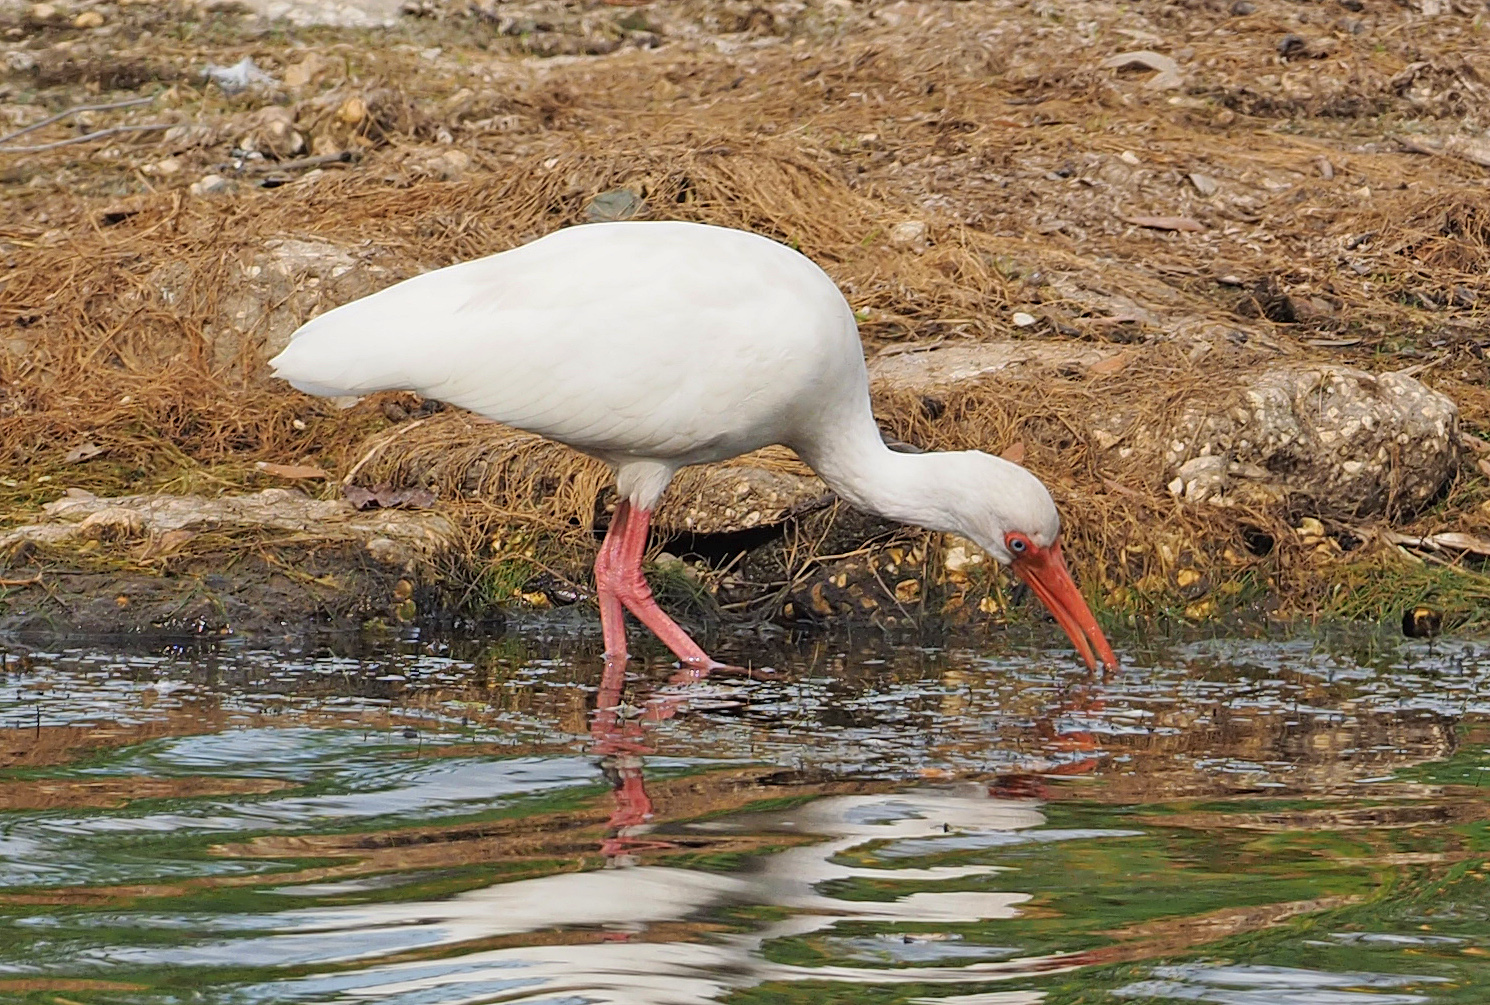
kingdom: Animalia
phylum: Chordata
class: Aves
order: Pelecaniformes
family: Threskiornithidae
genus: Eudocimus
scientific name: Eudocimus albus
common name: White ibis
